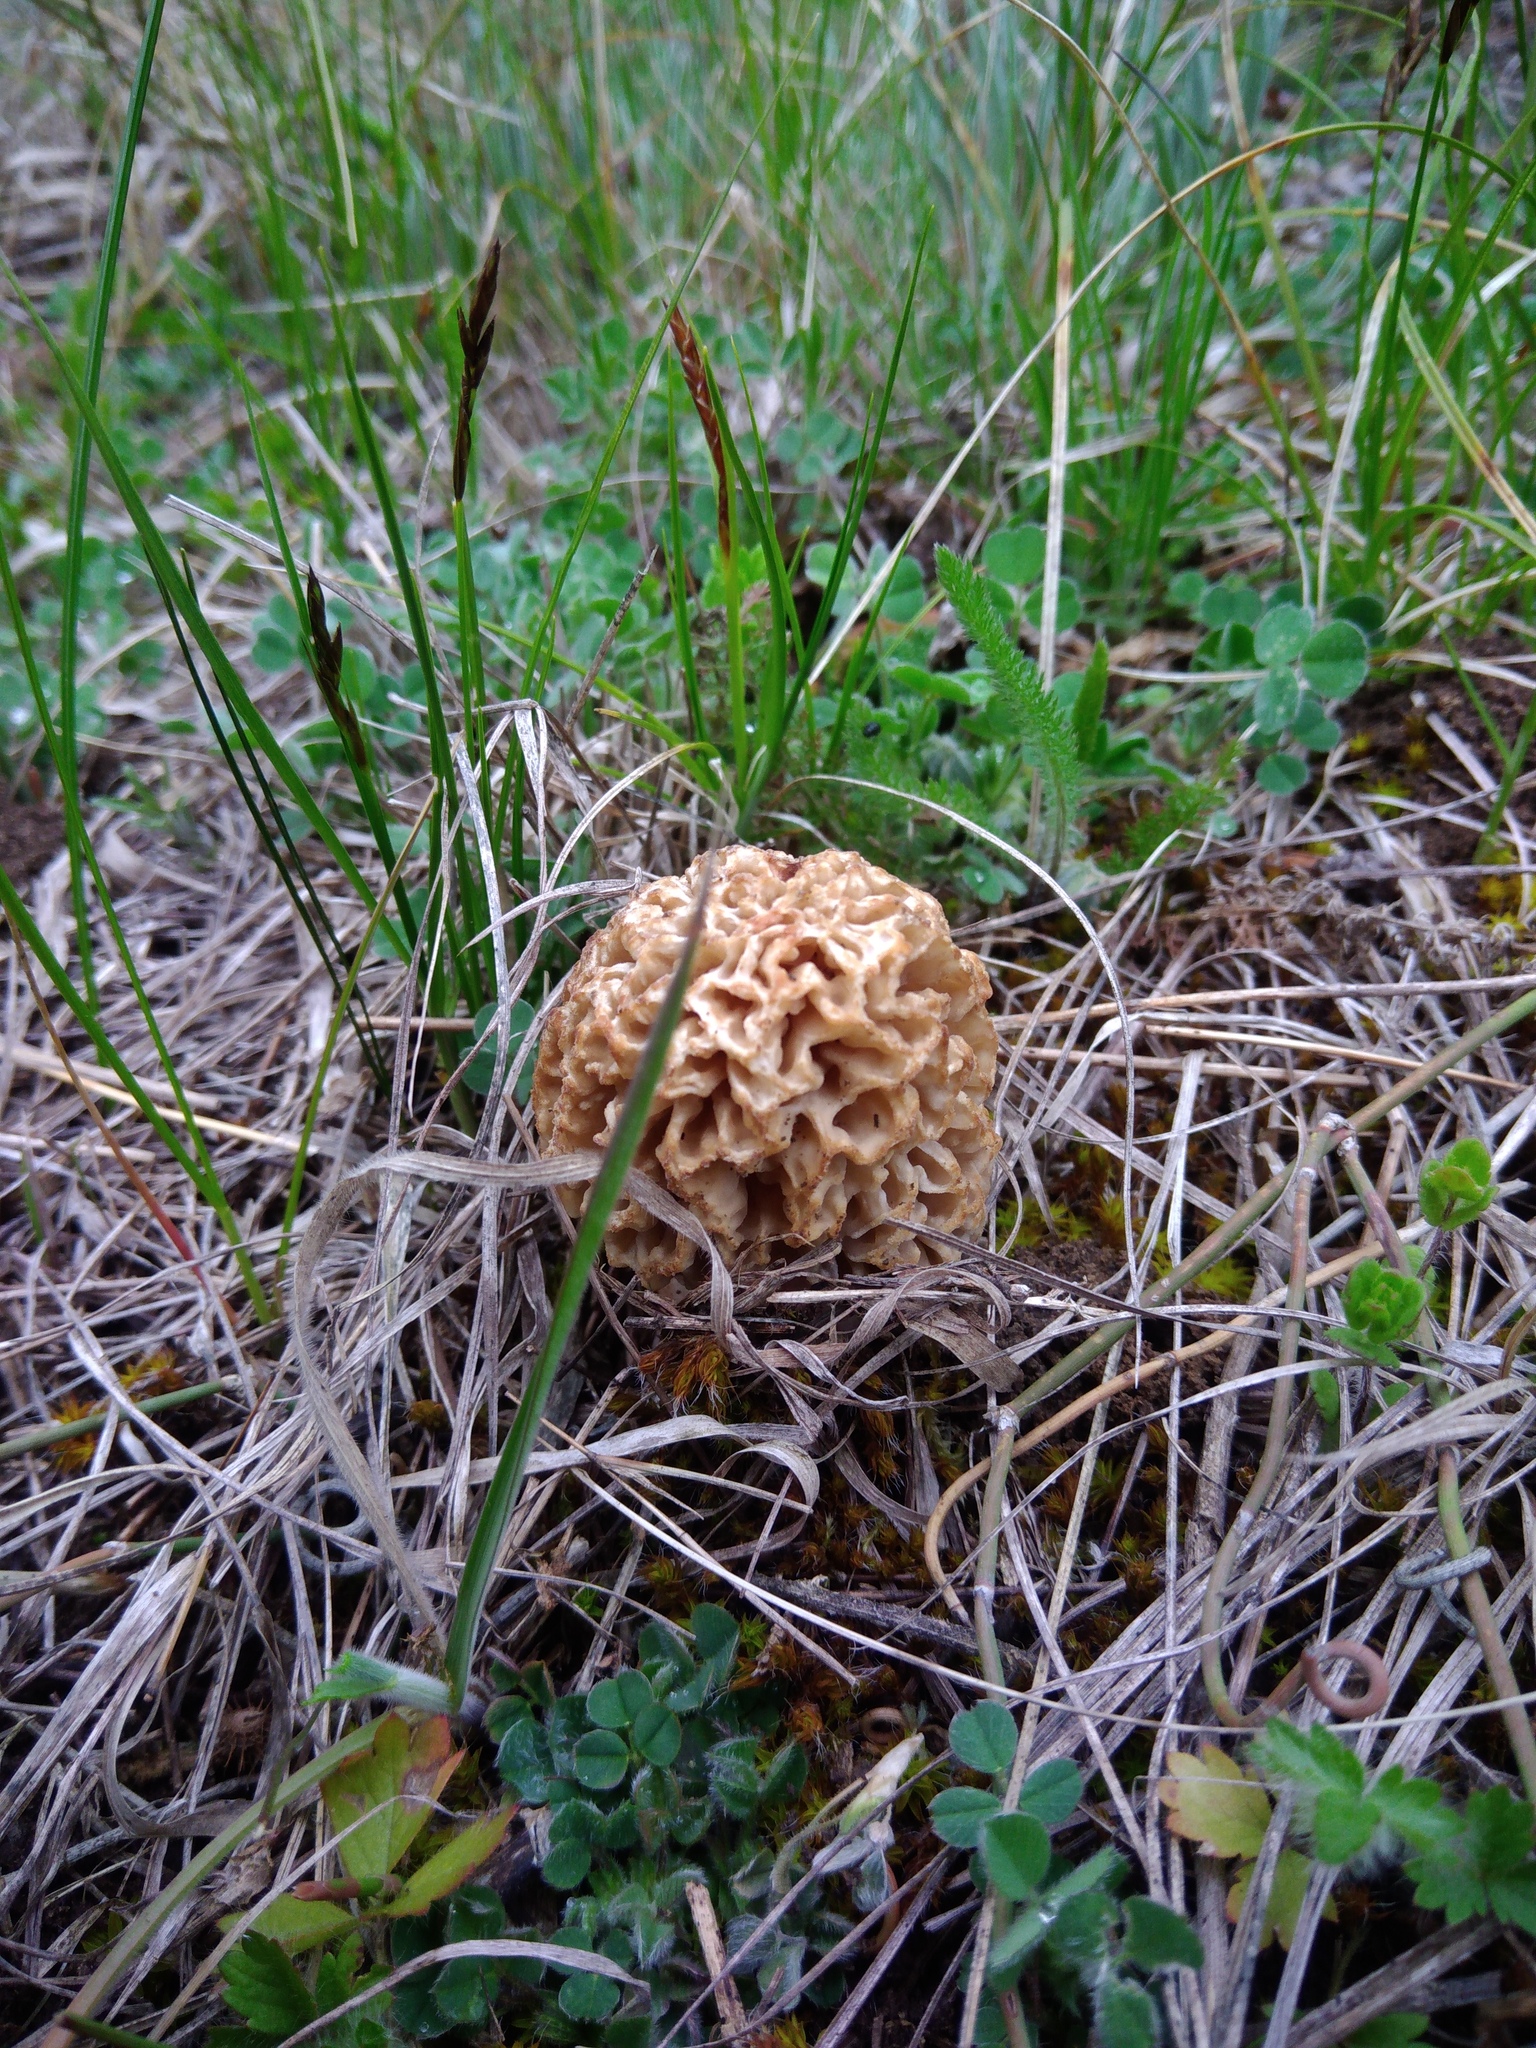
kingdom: Fungi
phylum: Ascomycota
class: Pezizomycetes
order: Pezizales
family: Morchellaceae
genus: Morchella
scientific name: Morchella steppicola
